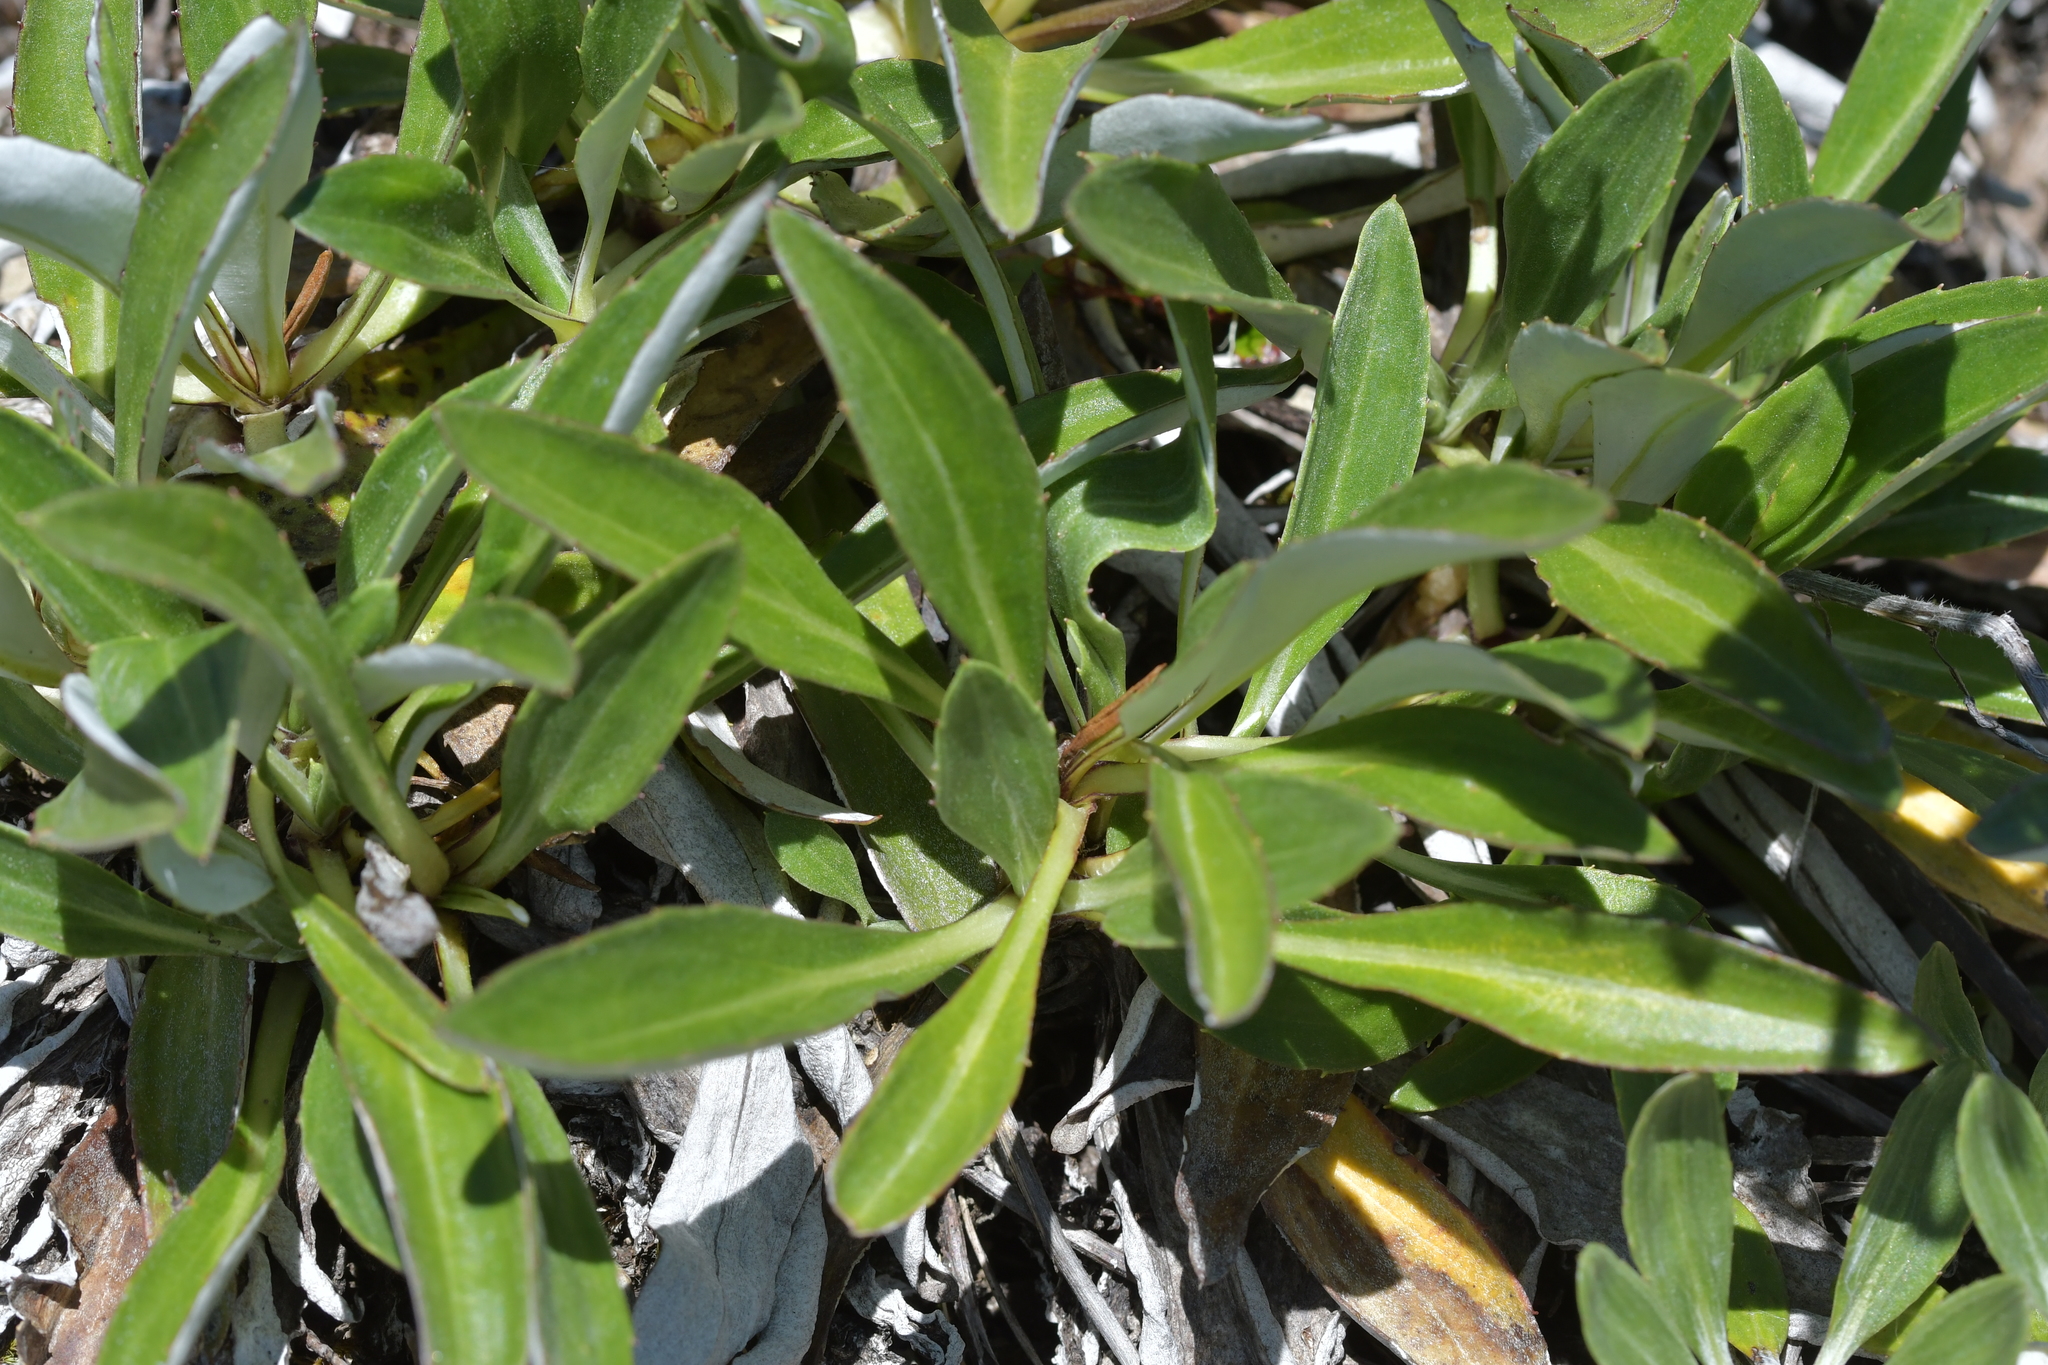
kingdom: Plantae
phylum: Tracheophyta
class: Magnoliopsida
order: Asterales
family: Asteraceae
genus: Celmisia
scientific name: Celmisia durietzii
